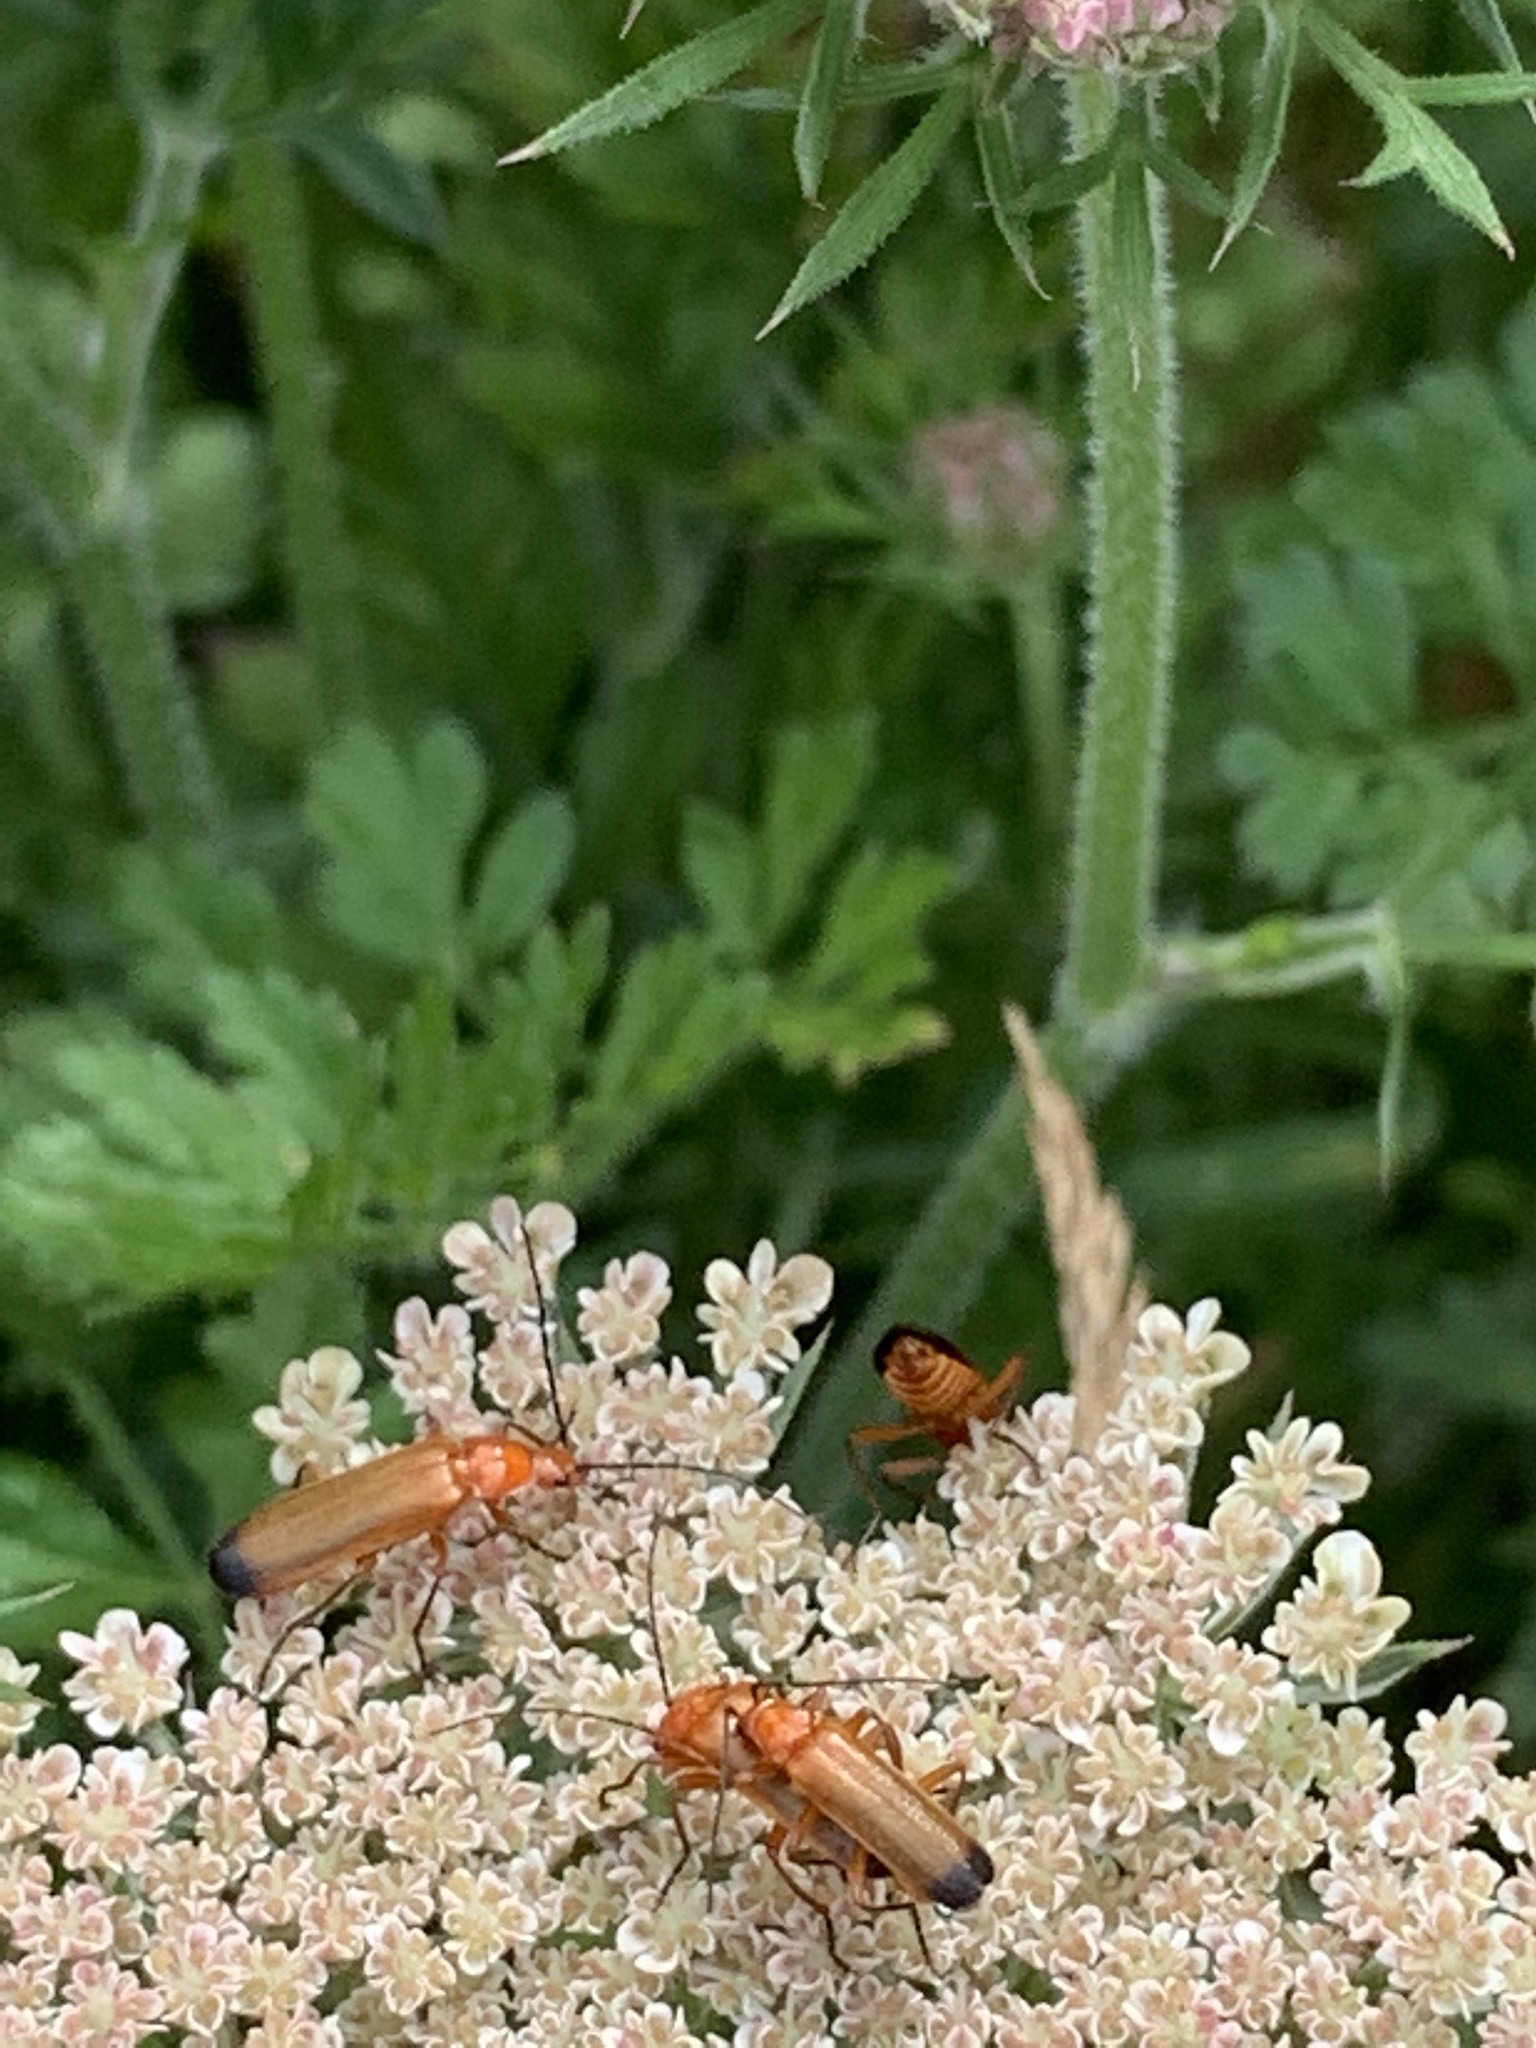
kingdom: Animalia
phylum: Arthropoda
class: Insecta
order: Coleoptera
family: Cantharidae
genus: Rhagonycha
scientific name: Rhagonycha fulva
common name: Common red soldier beetle
